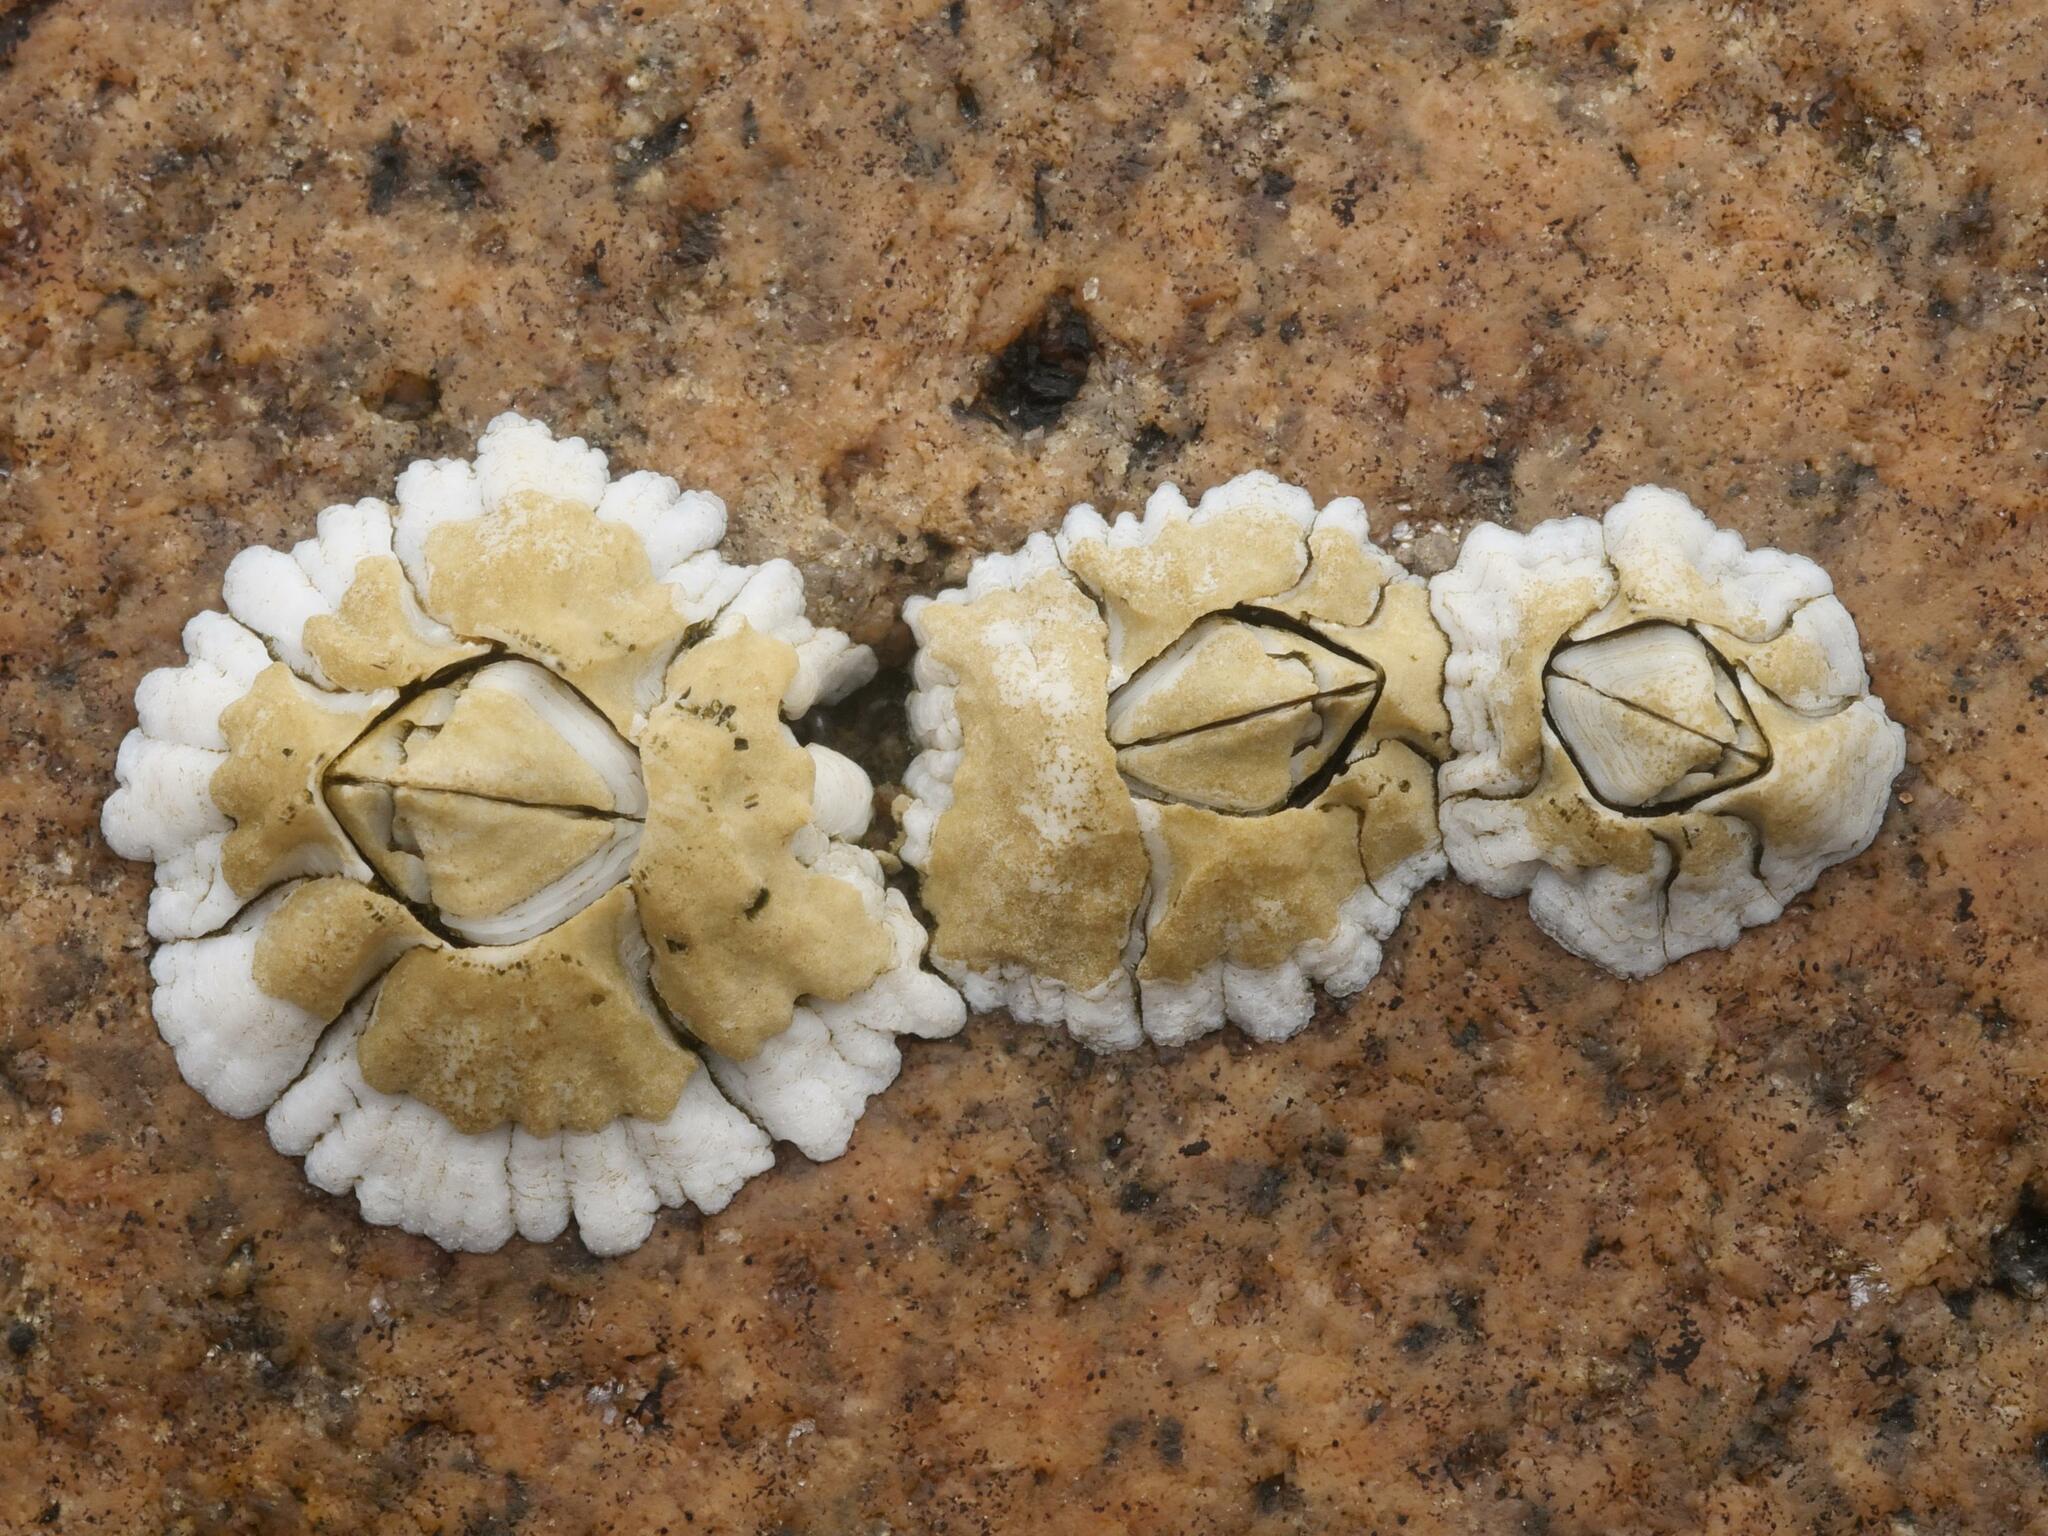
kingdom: Animalia
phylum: Arthropoda
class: Maxillopoda
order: Sessilia
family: Archaeobalanidae
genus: Semibalanus
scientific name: Semibalanus balanoides
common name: Acorn barnacle
